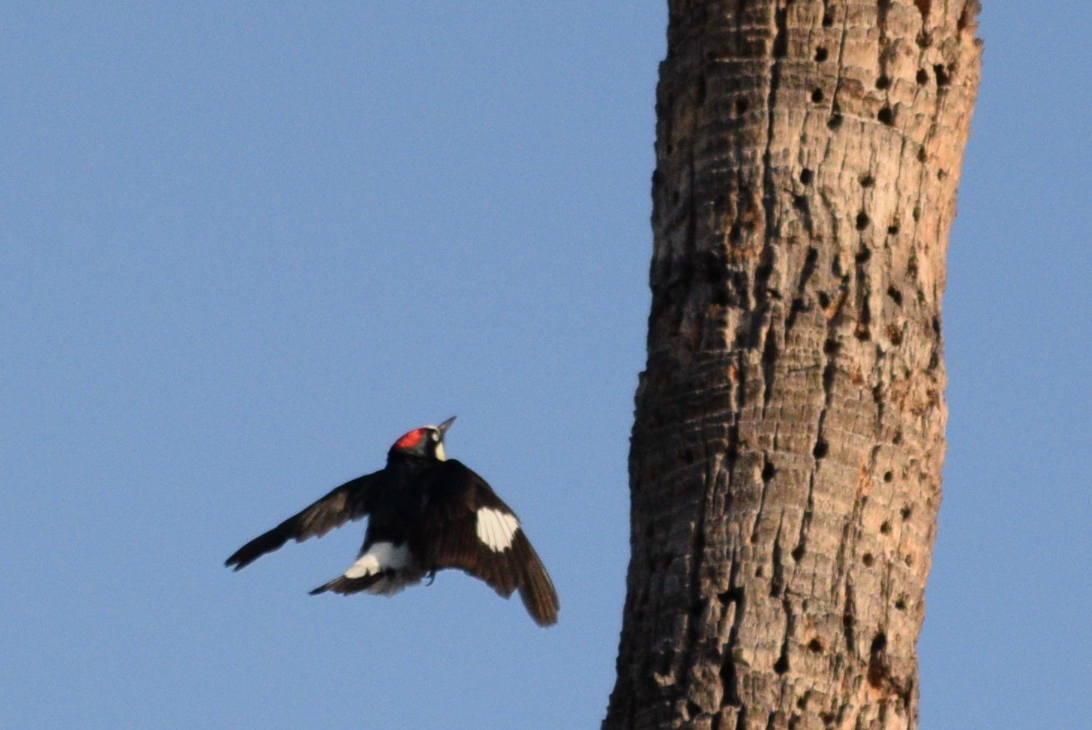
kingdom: Animalia
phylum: Chordata
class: Aves
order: Piciformes
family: Picidae
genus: Melanerpes
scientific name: Melanerpes formicivorus
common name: Acorn woodpecker
